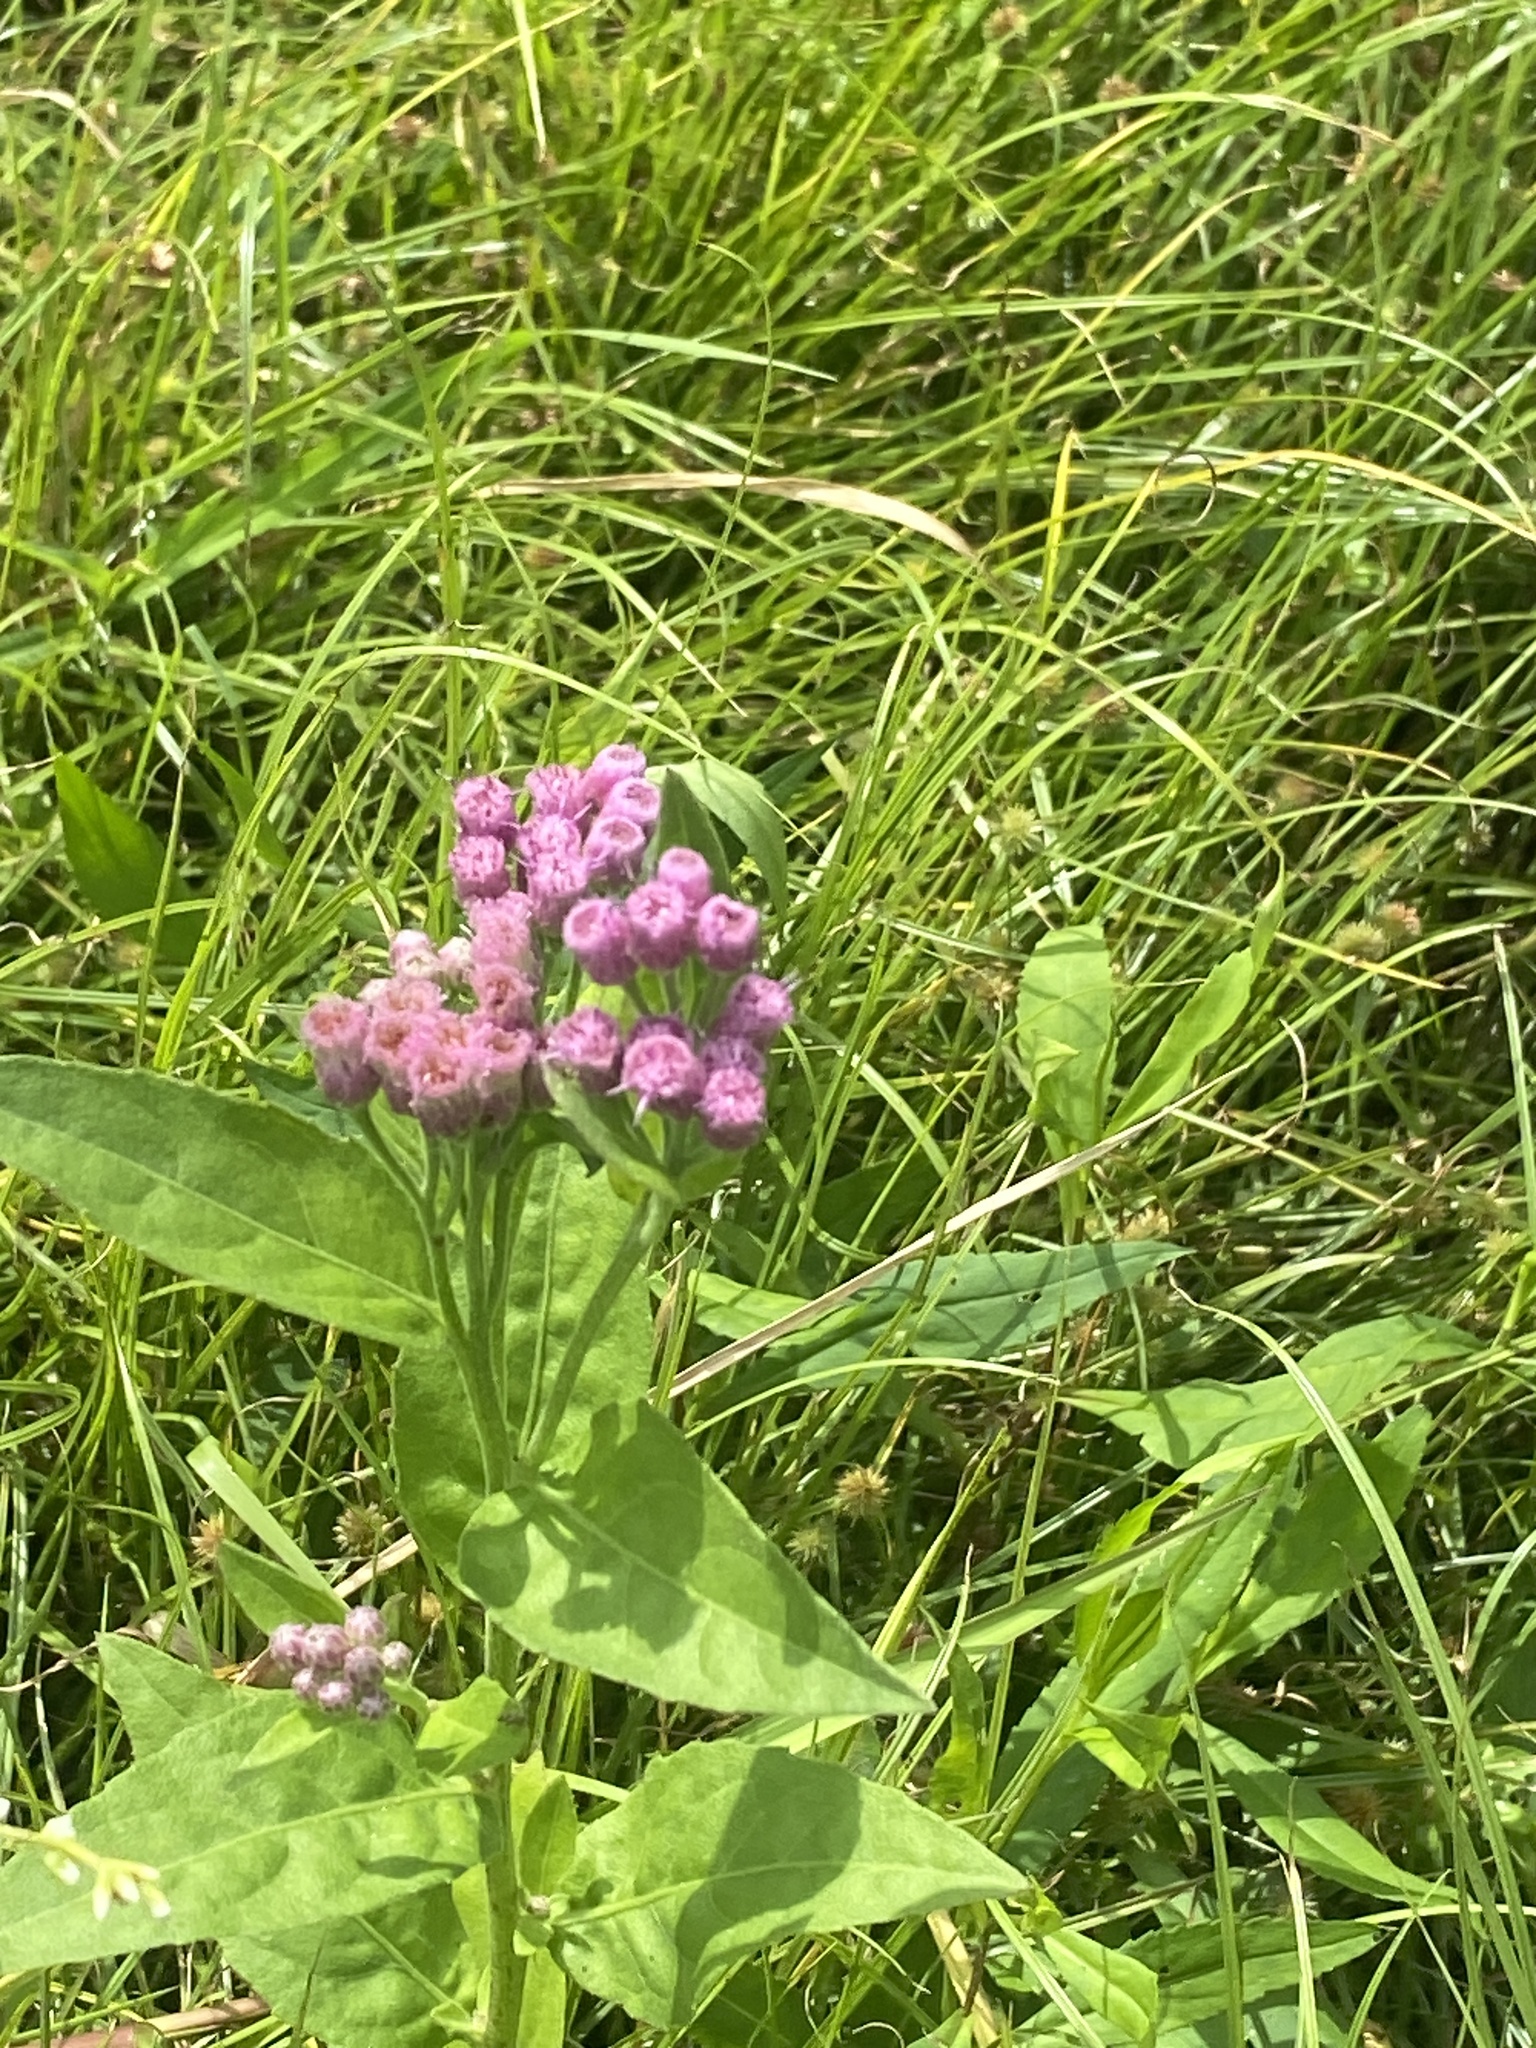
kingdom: Plantae
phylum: Tracheophyta
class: Magnoliopsida
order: Asterales
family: Asteraceae
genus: Pluchea
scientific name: Pluchea odorata
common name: Saltmarsh fleabane
